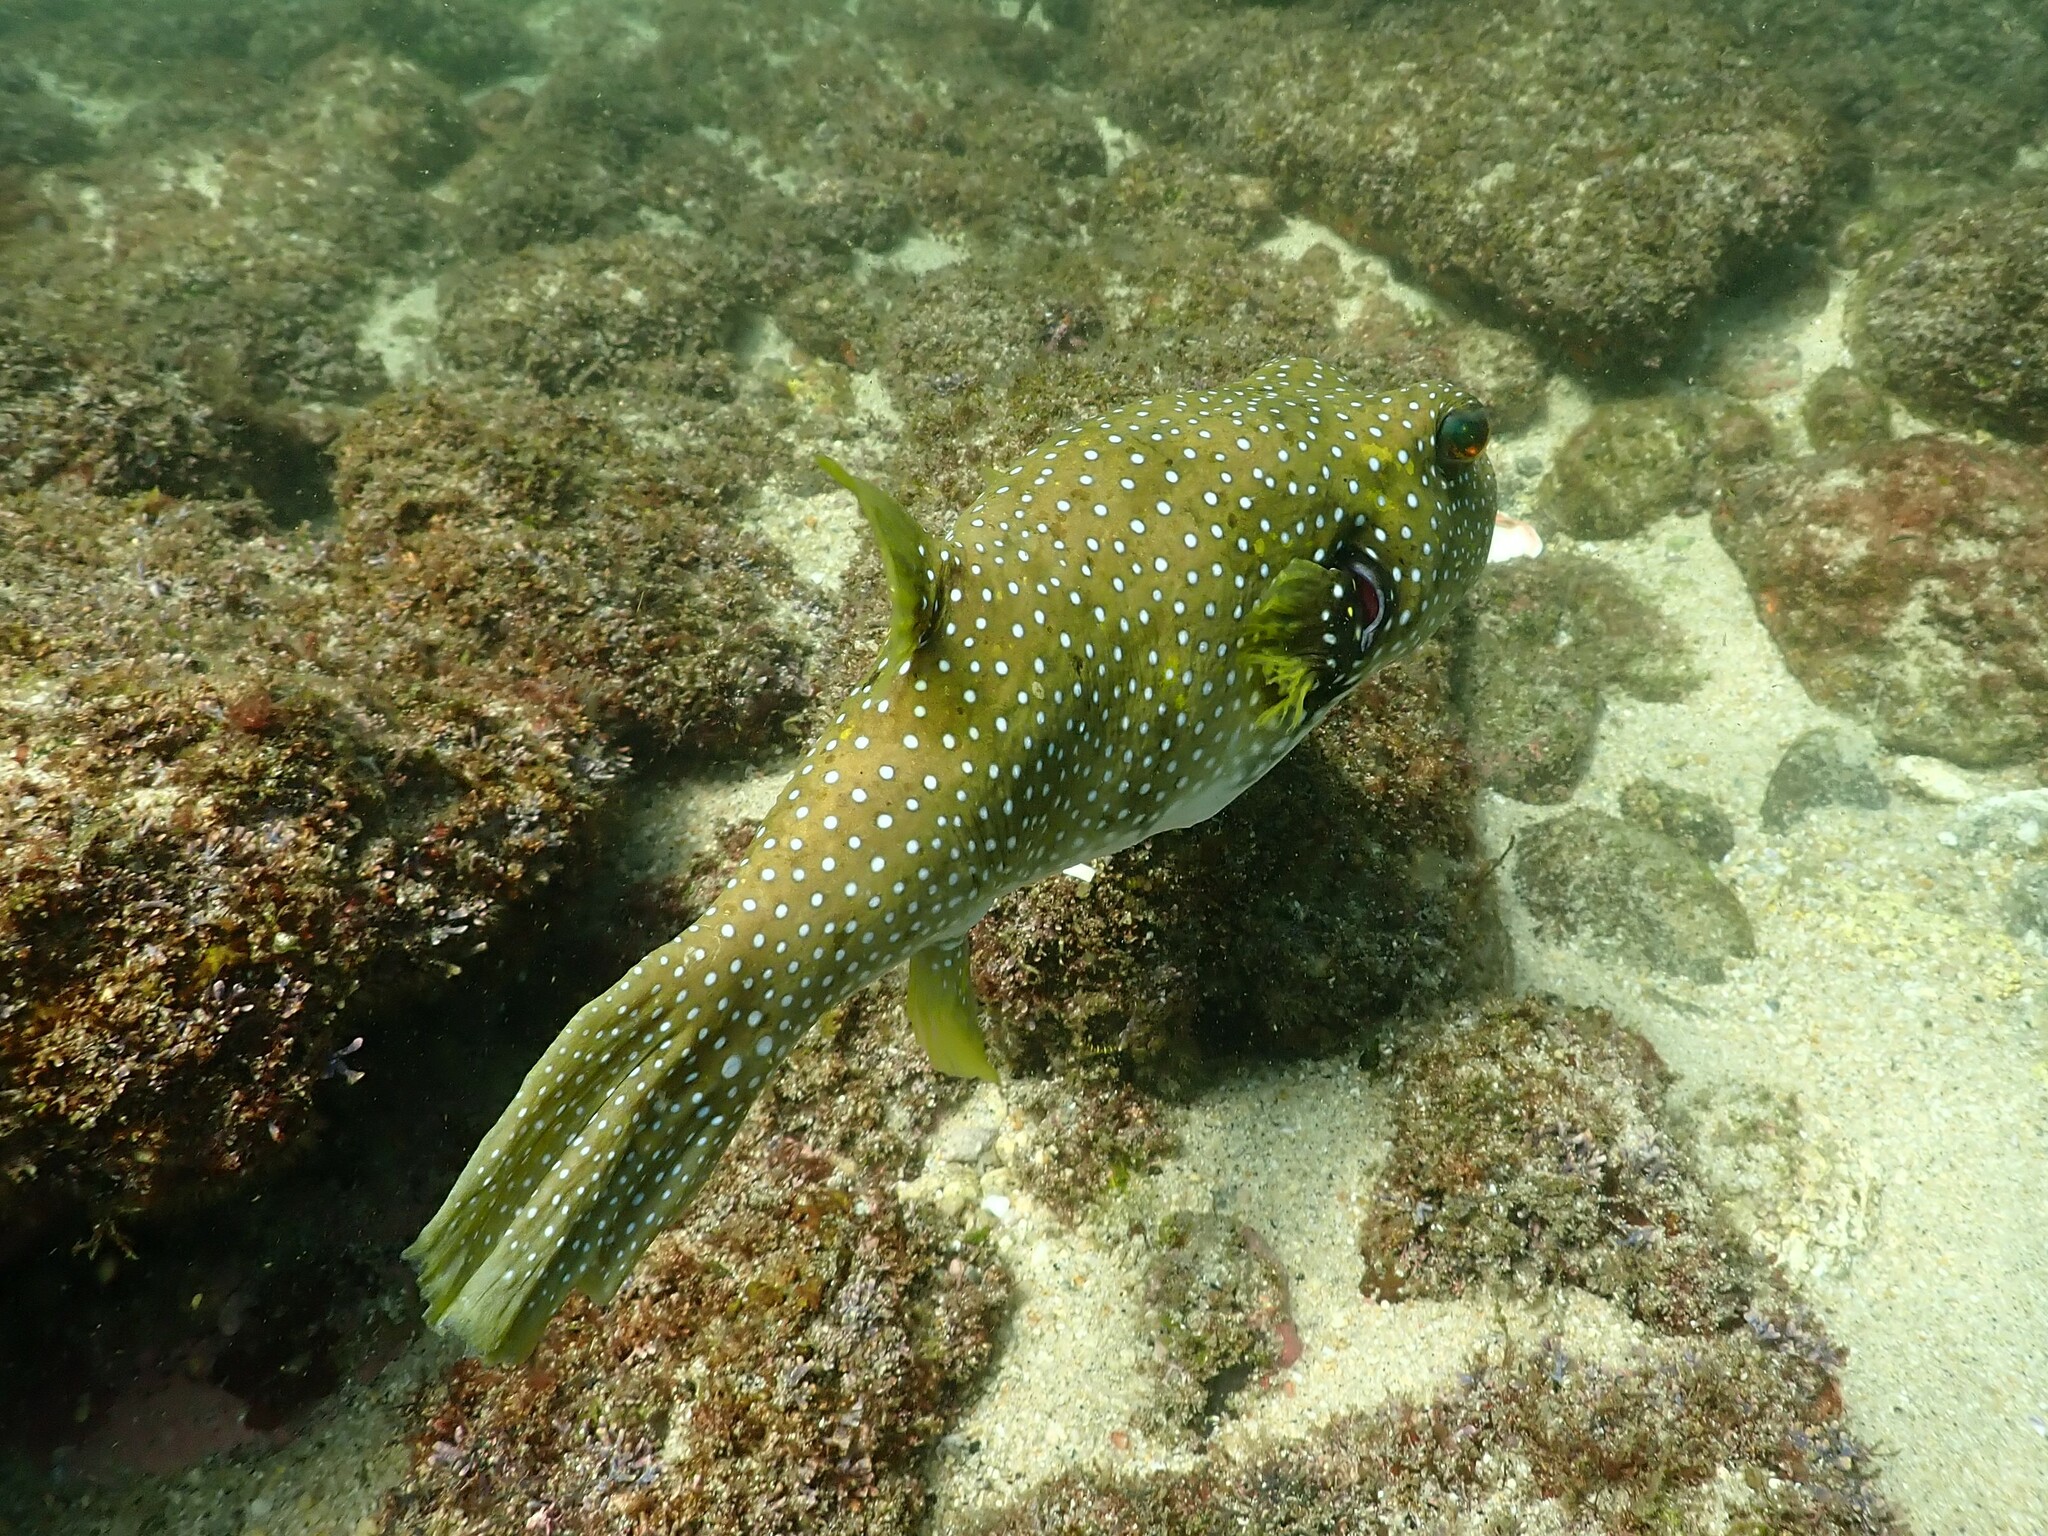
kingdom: Animalia
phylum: Chordata
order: Tetraodontiformes
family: Tetraodontidae
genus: Arothron
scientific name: Arothron hispidus
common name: Stripebelly puffer
